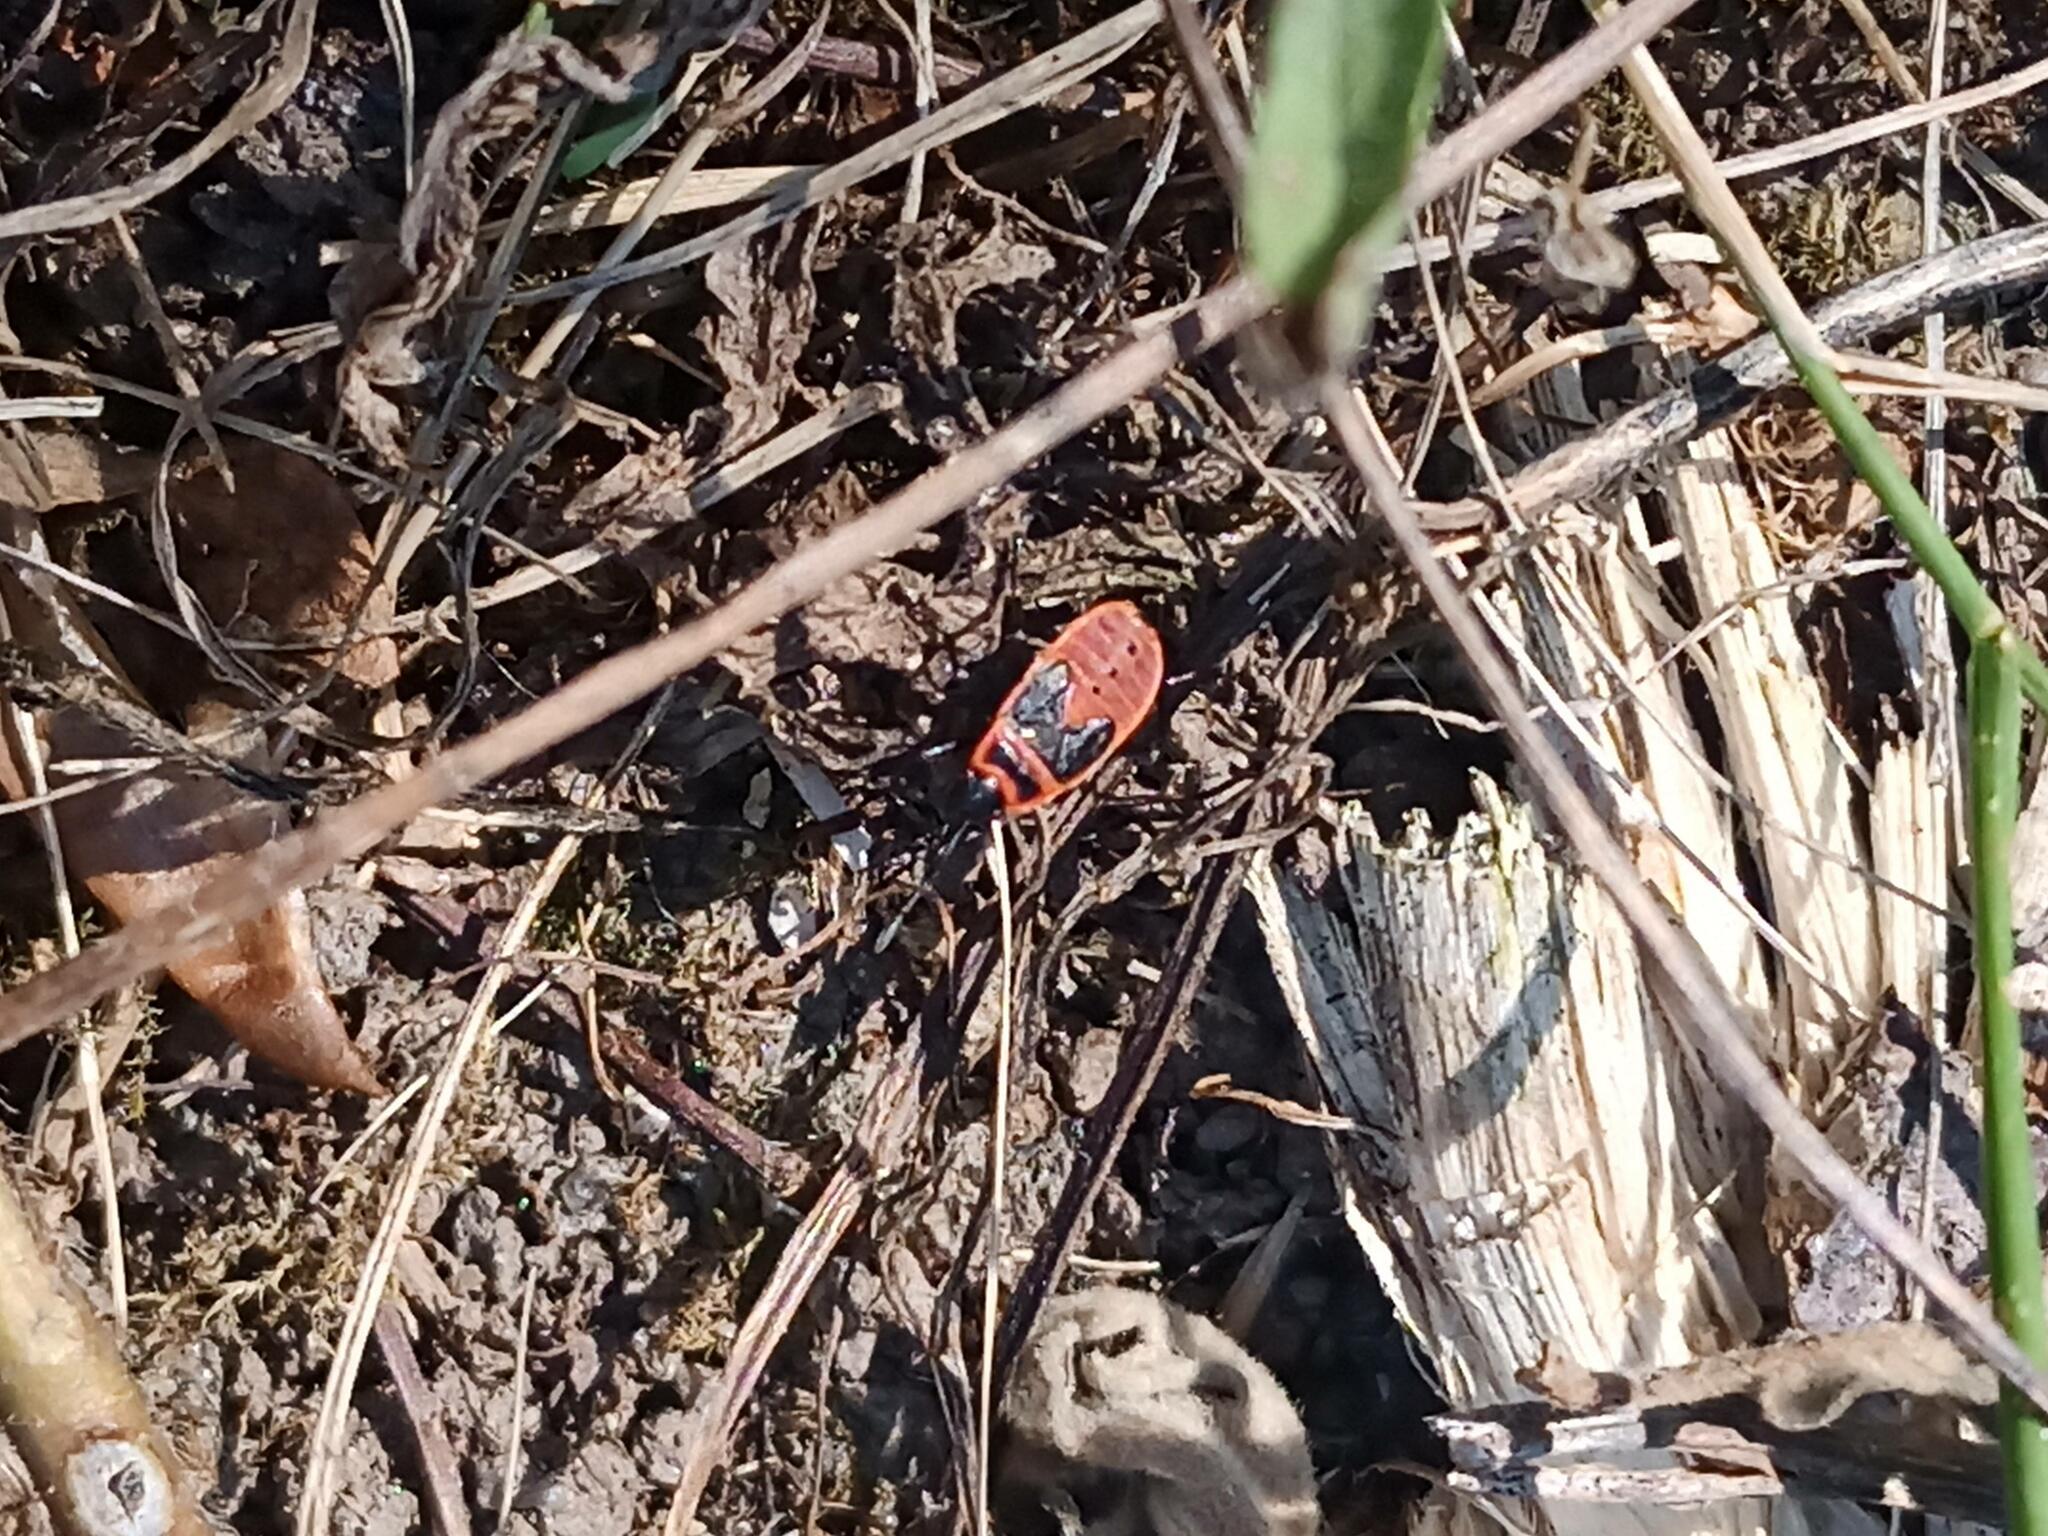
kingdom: Animalia
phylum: Arthropoda
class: Insecta
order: Hemiptera
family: Pyrrhocoridae
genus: Pyrrhocoris
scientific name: Pyrrhocoris apterus
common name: Firebug
